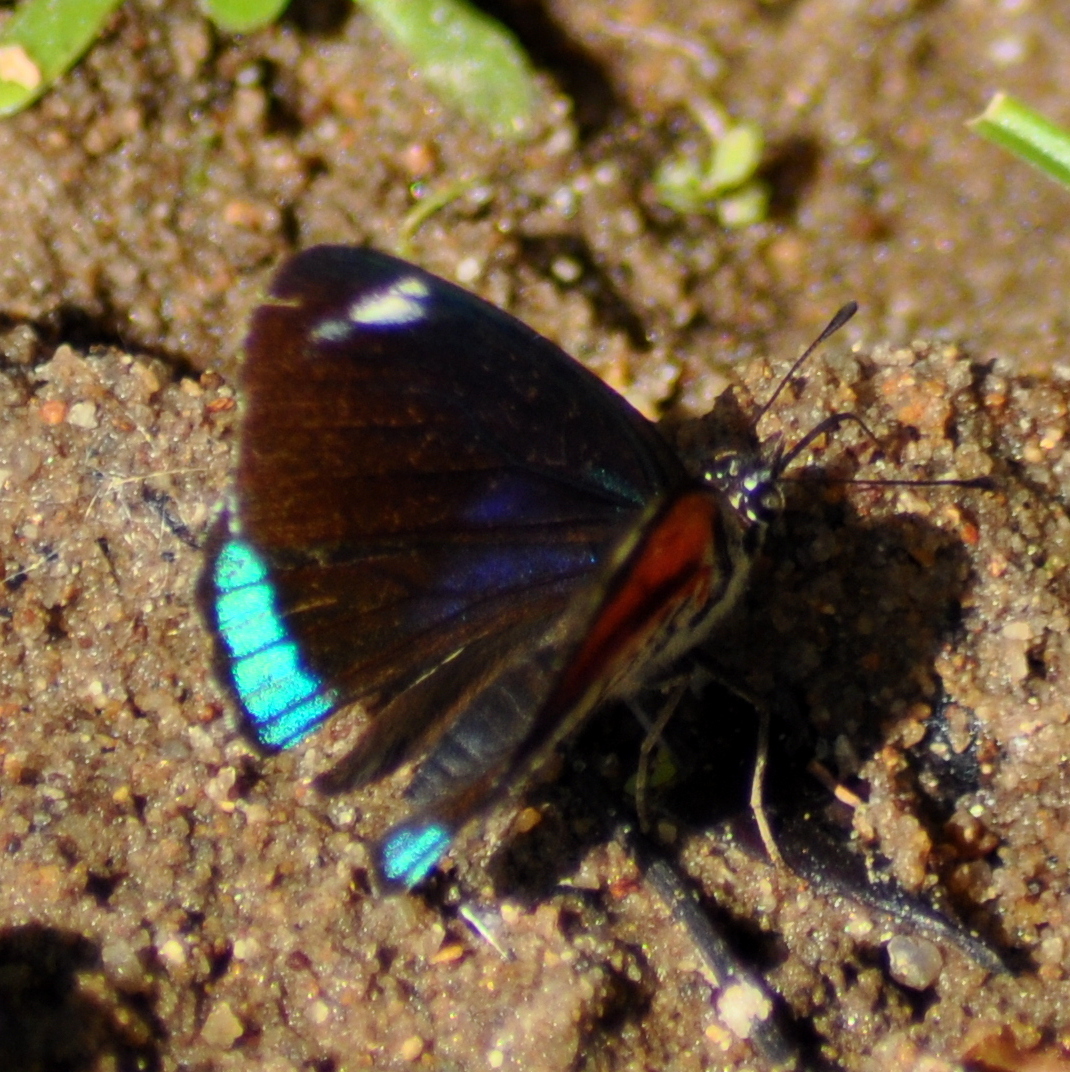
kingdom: Animalia
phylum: Arthropoda
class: Insecta
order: Lepidoptera
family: Nymphalidae
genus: Diaethria
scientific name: Diaethria candrena
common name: Number eighty
